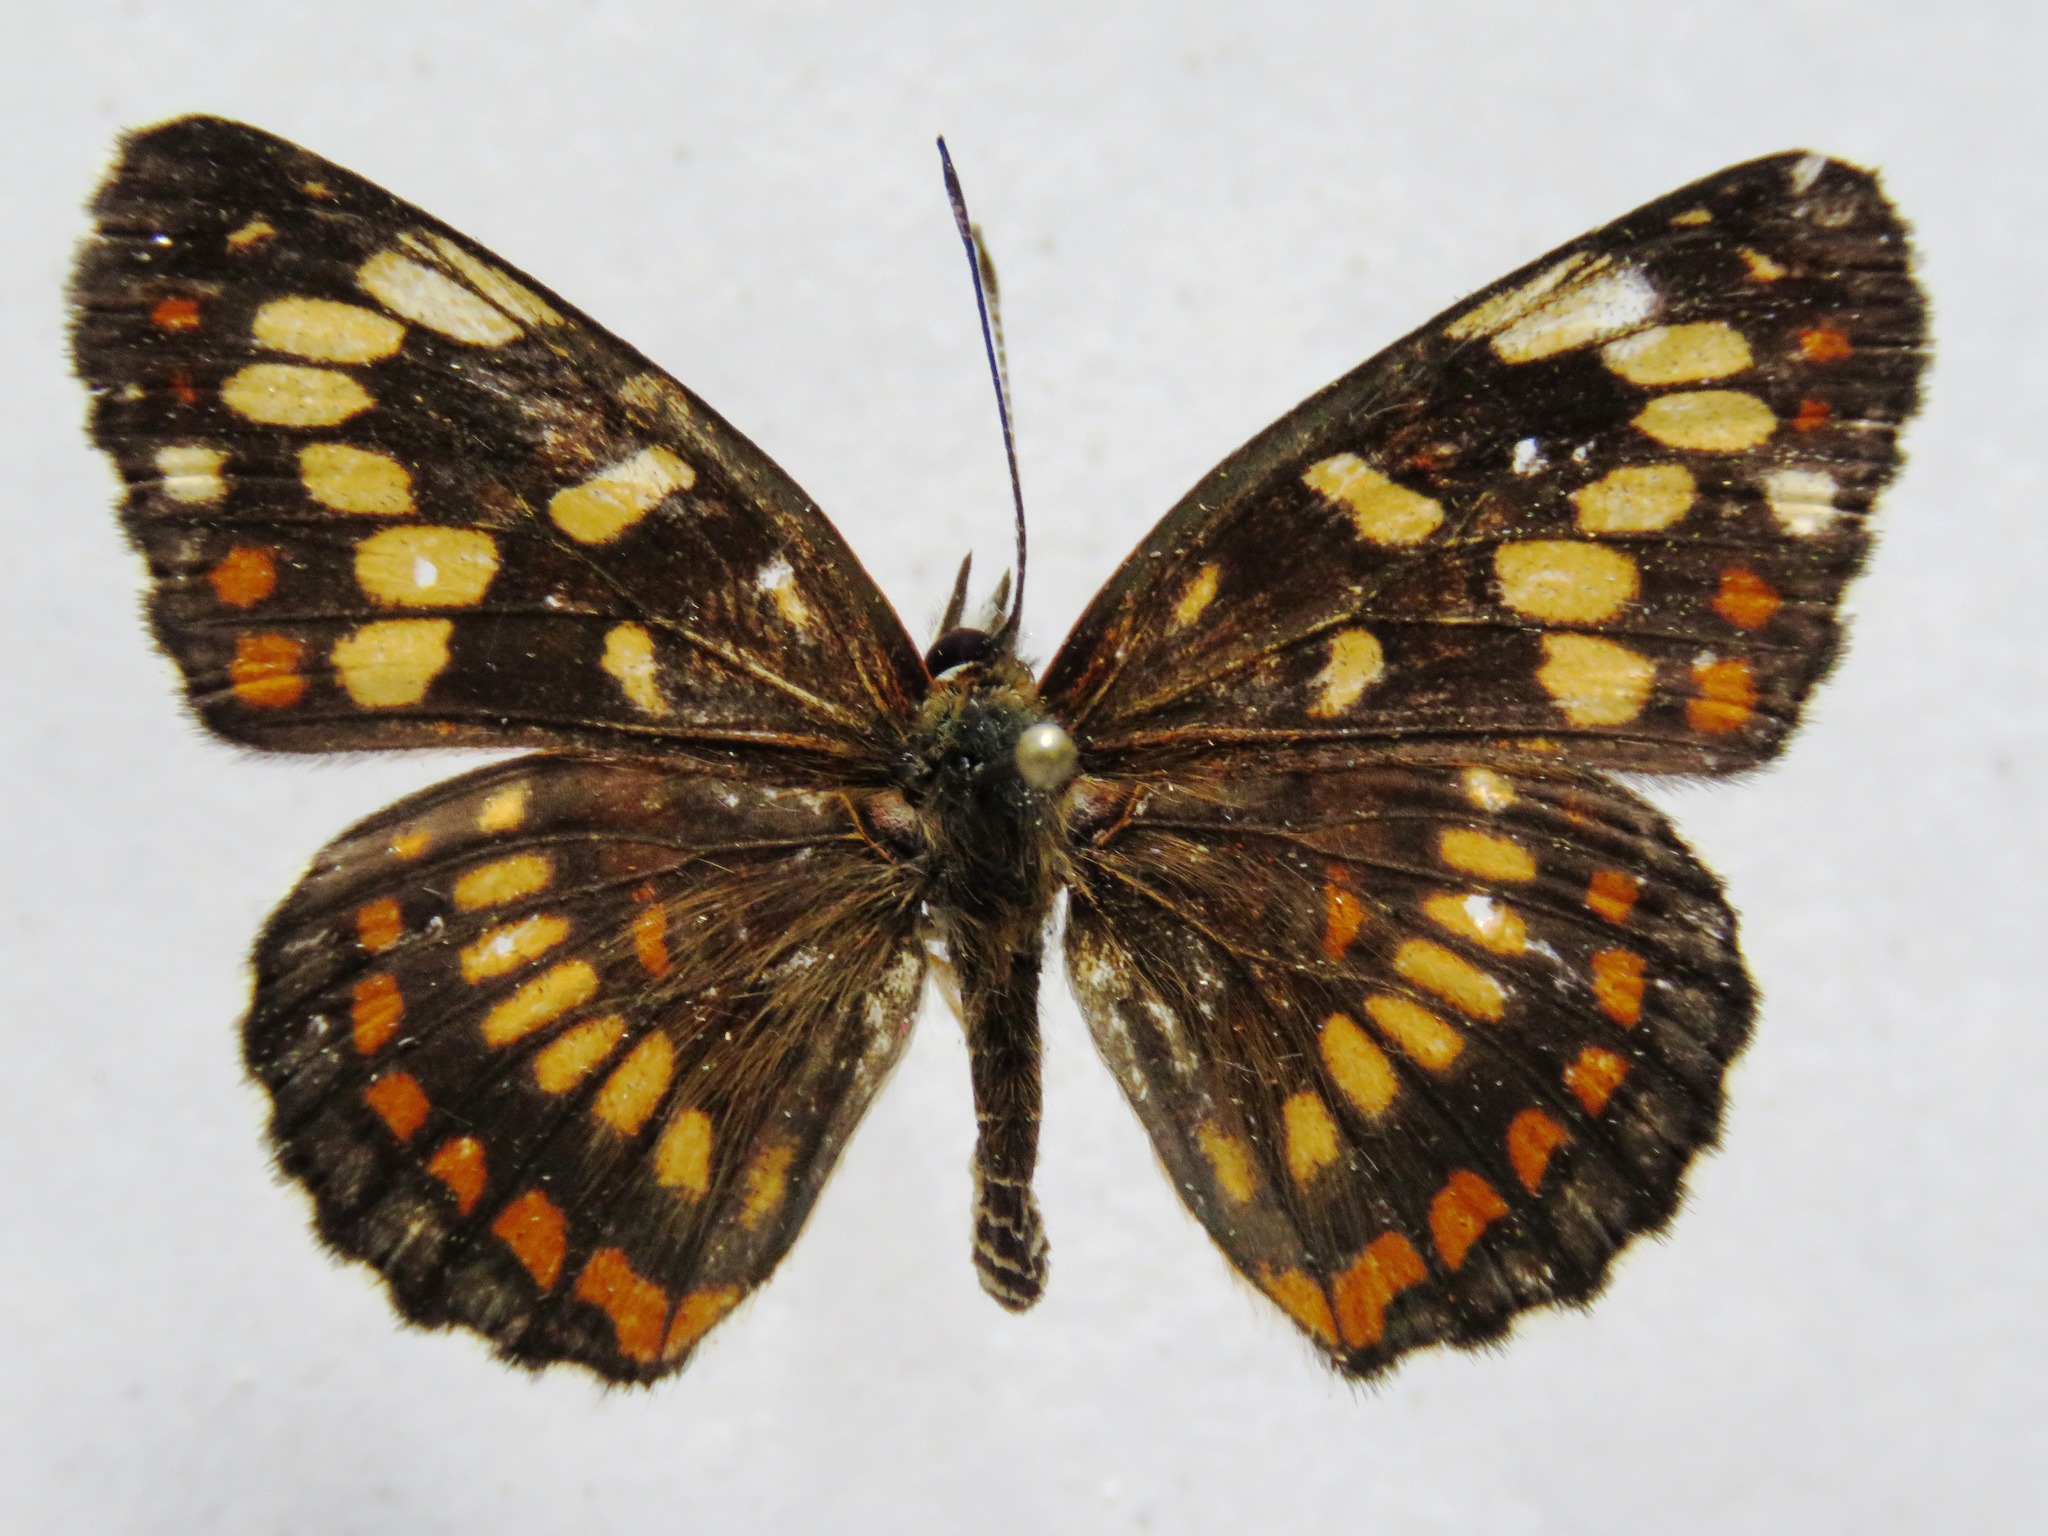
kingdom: Animalia
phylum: Arthropoda
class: Insecta
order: Lepidoptera
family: Nymphalidae
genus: Thessalia
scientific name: Thessalia theona
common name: Nymphalid moth
